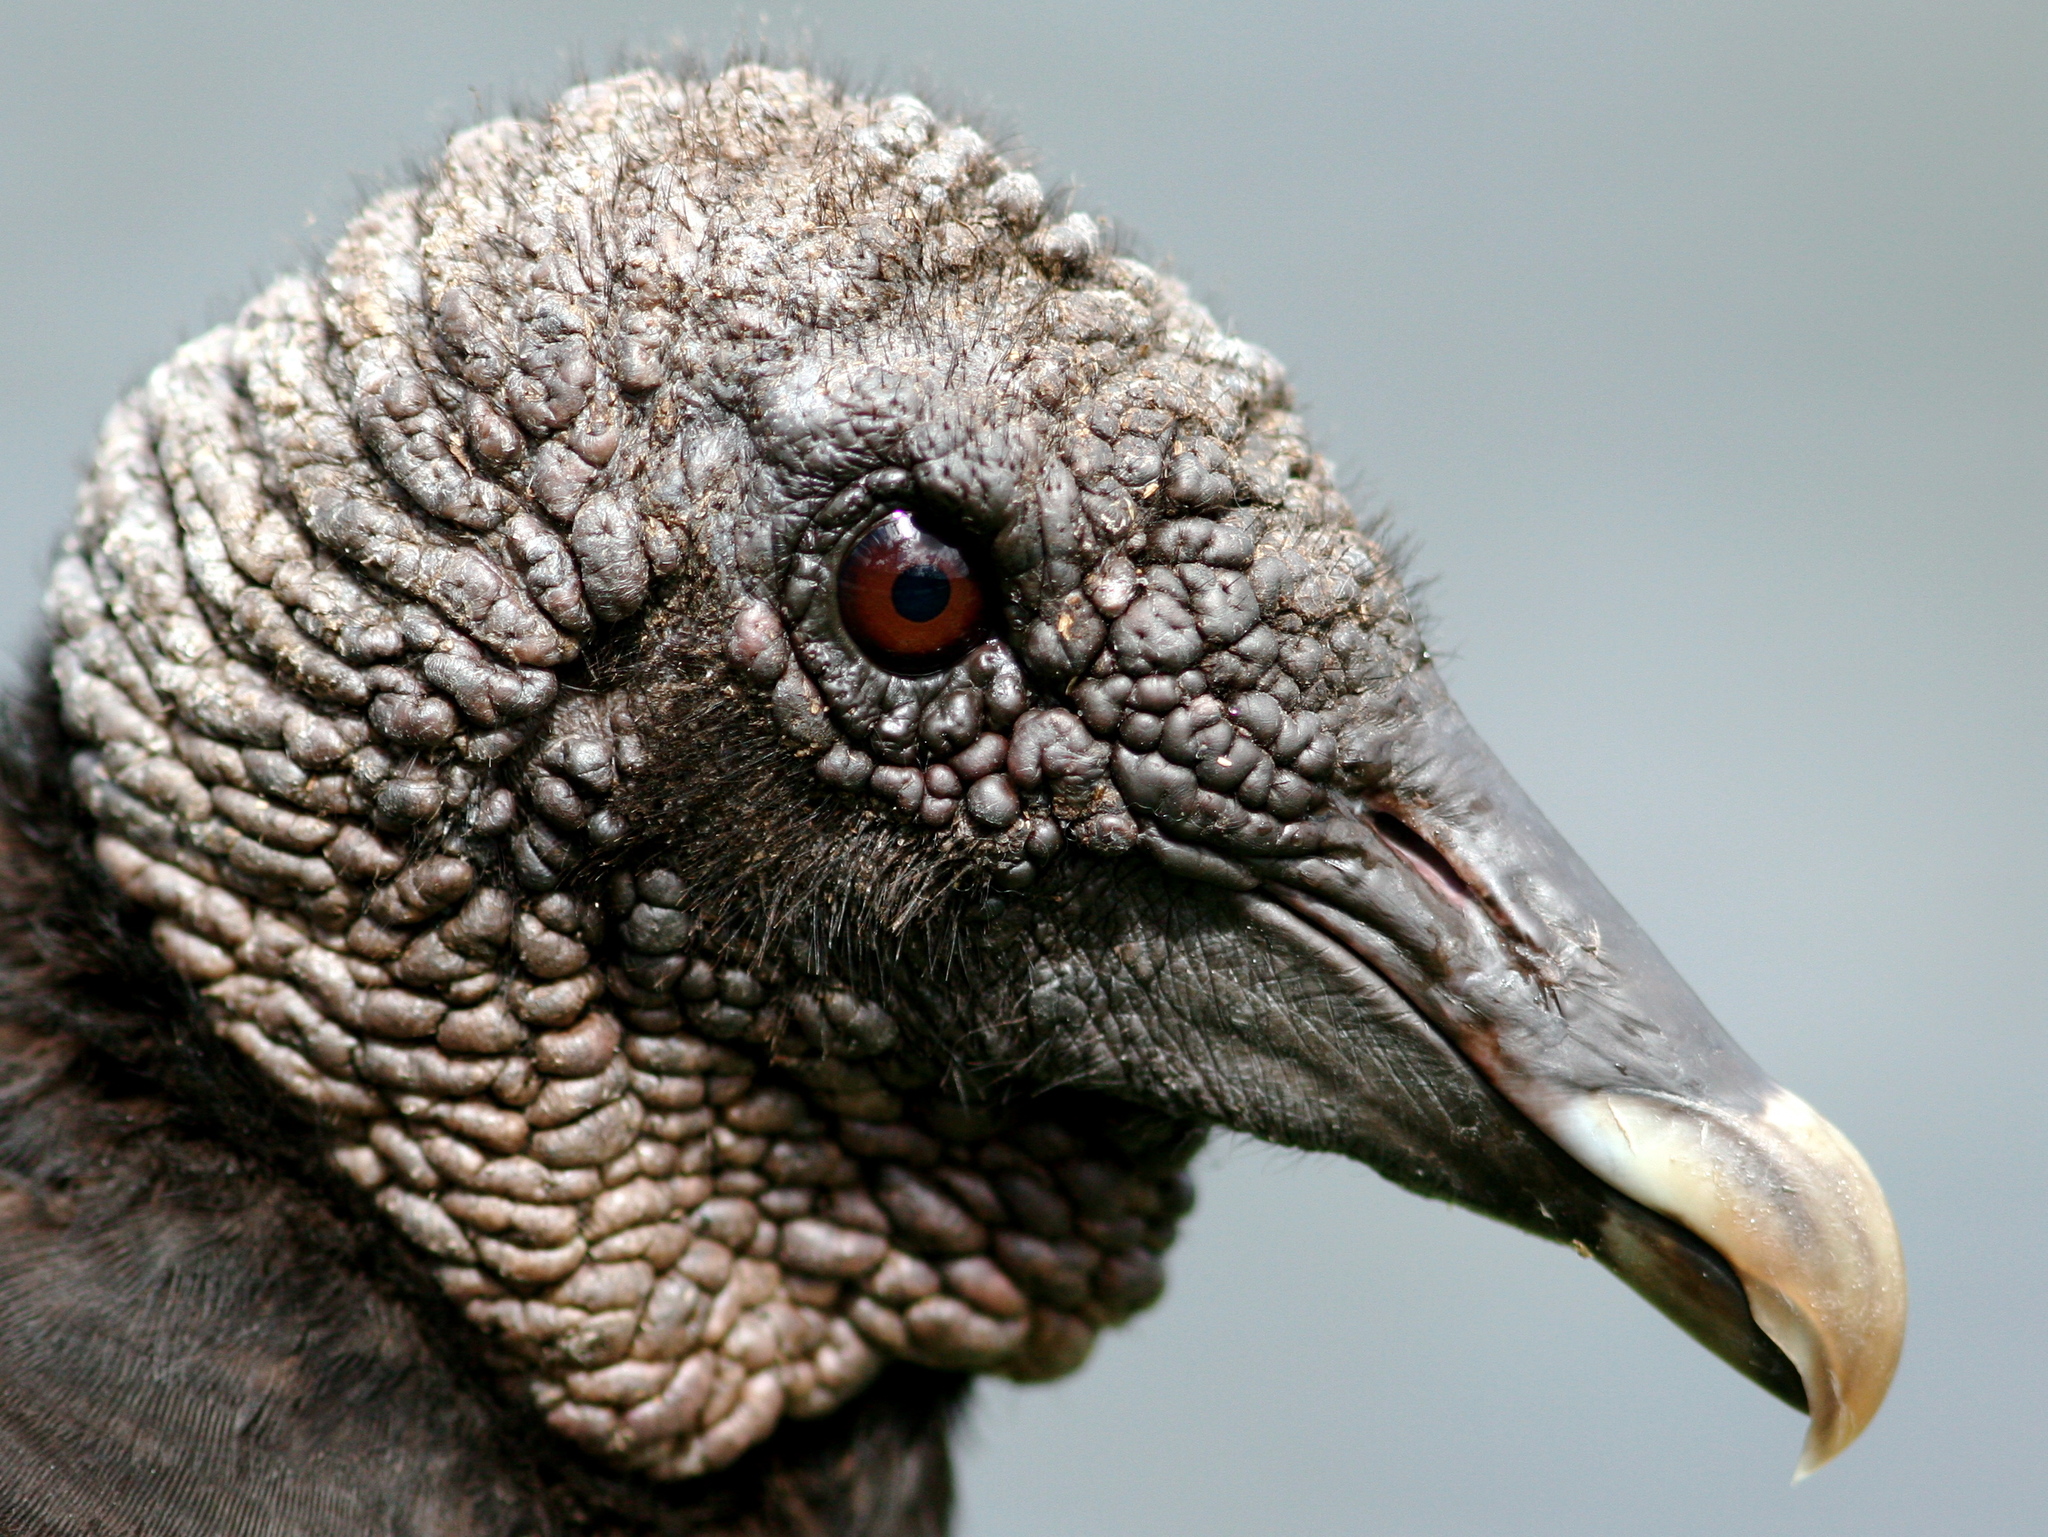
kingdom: Animalia
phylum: Chordata
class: Aves
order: Accipitriformes
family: Cathartidae
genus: Coragyps
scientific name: Coragyps atratus
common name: Black vulture
